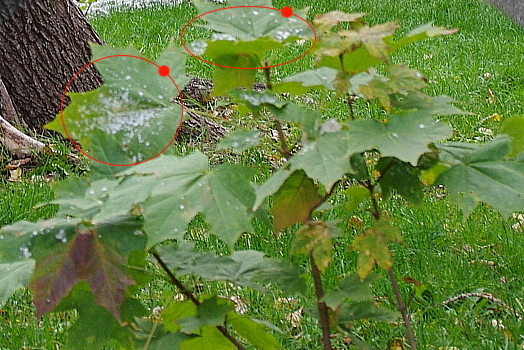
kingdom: Fungi
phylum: Ascomycota
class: Leotiomycetes
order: Helotiales
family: Erysiphaceae
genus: Sawadaea
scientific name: Sawadaea tulasnei
